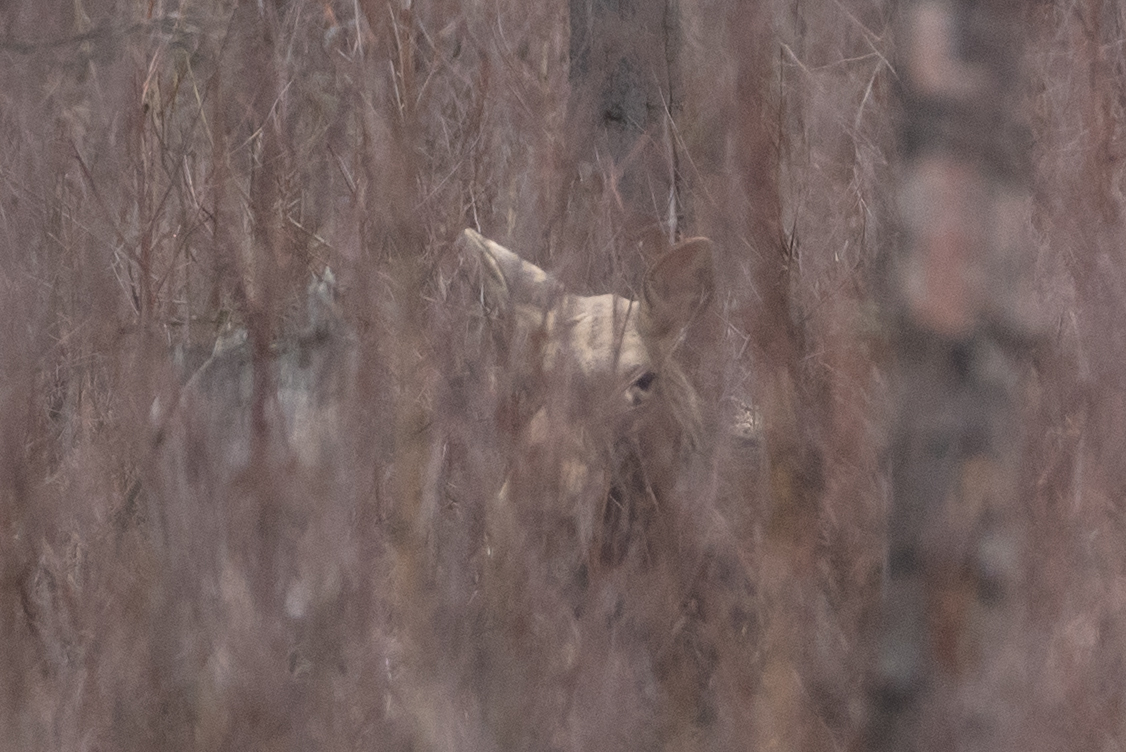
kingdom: Animalia
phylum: Chordata
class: Mammalia
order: Artiodactyla
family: Cervidae
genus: Alces
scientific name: Alces alces
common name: Moose
